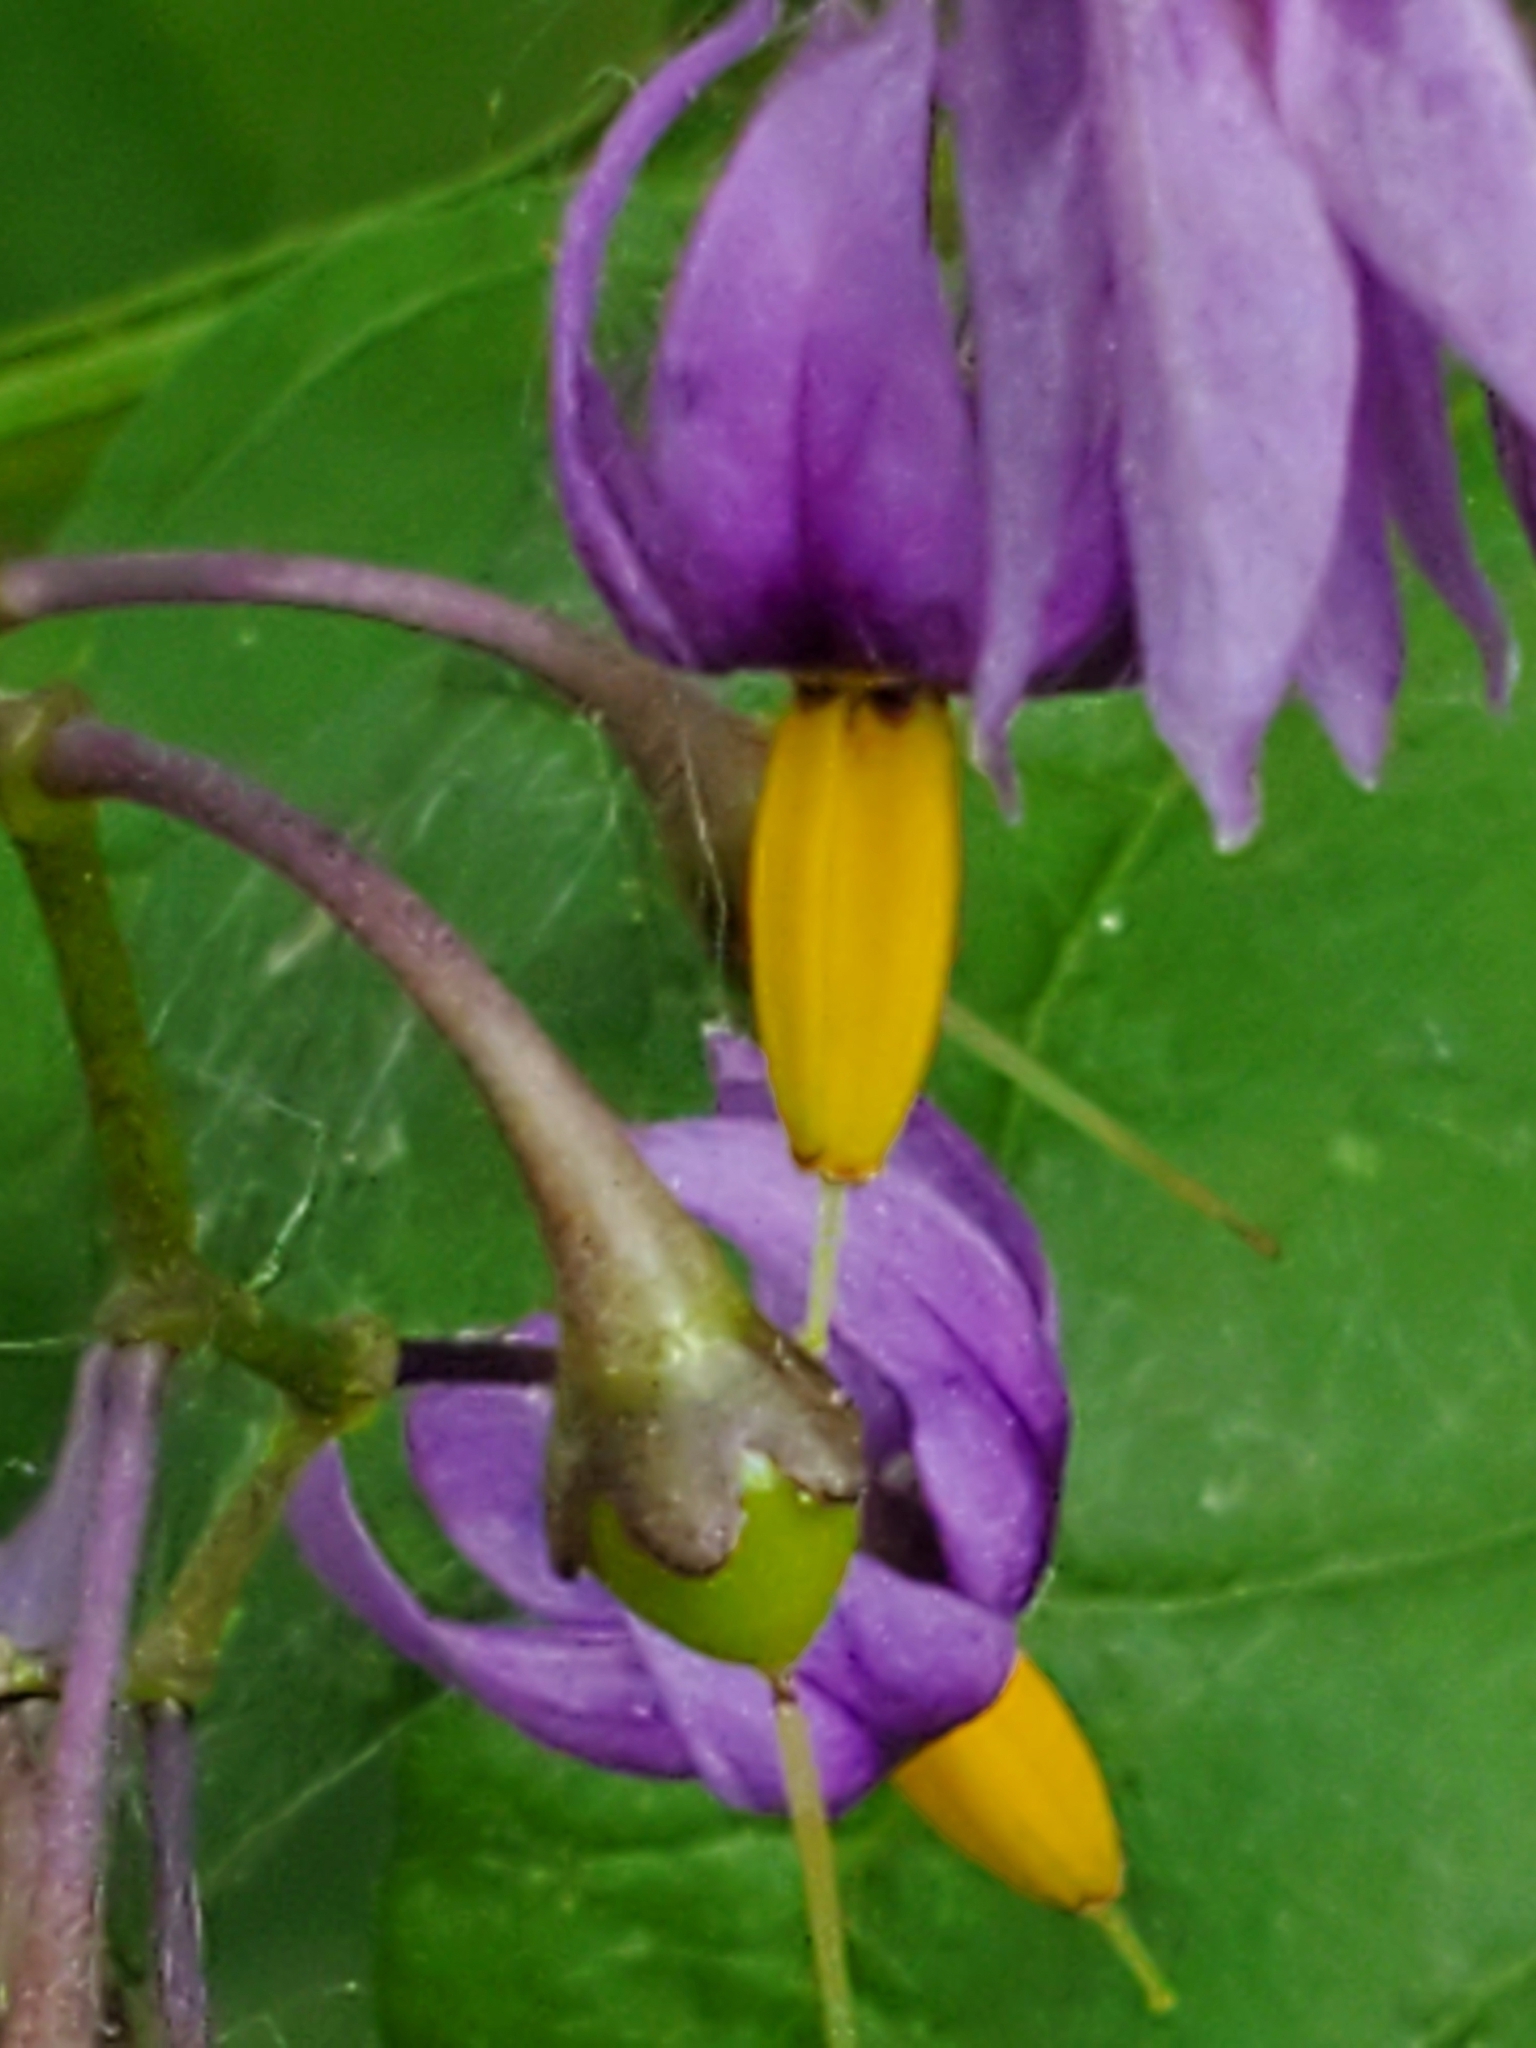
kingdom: Plantae
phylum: Tracheophyta
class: Magnoliopsida
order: Solanales
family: Solanaceae
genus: Solanum
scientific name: Solanum dulcamara
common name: Climbing nightshade
